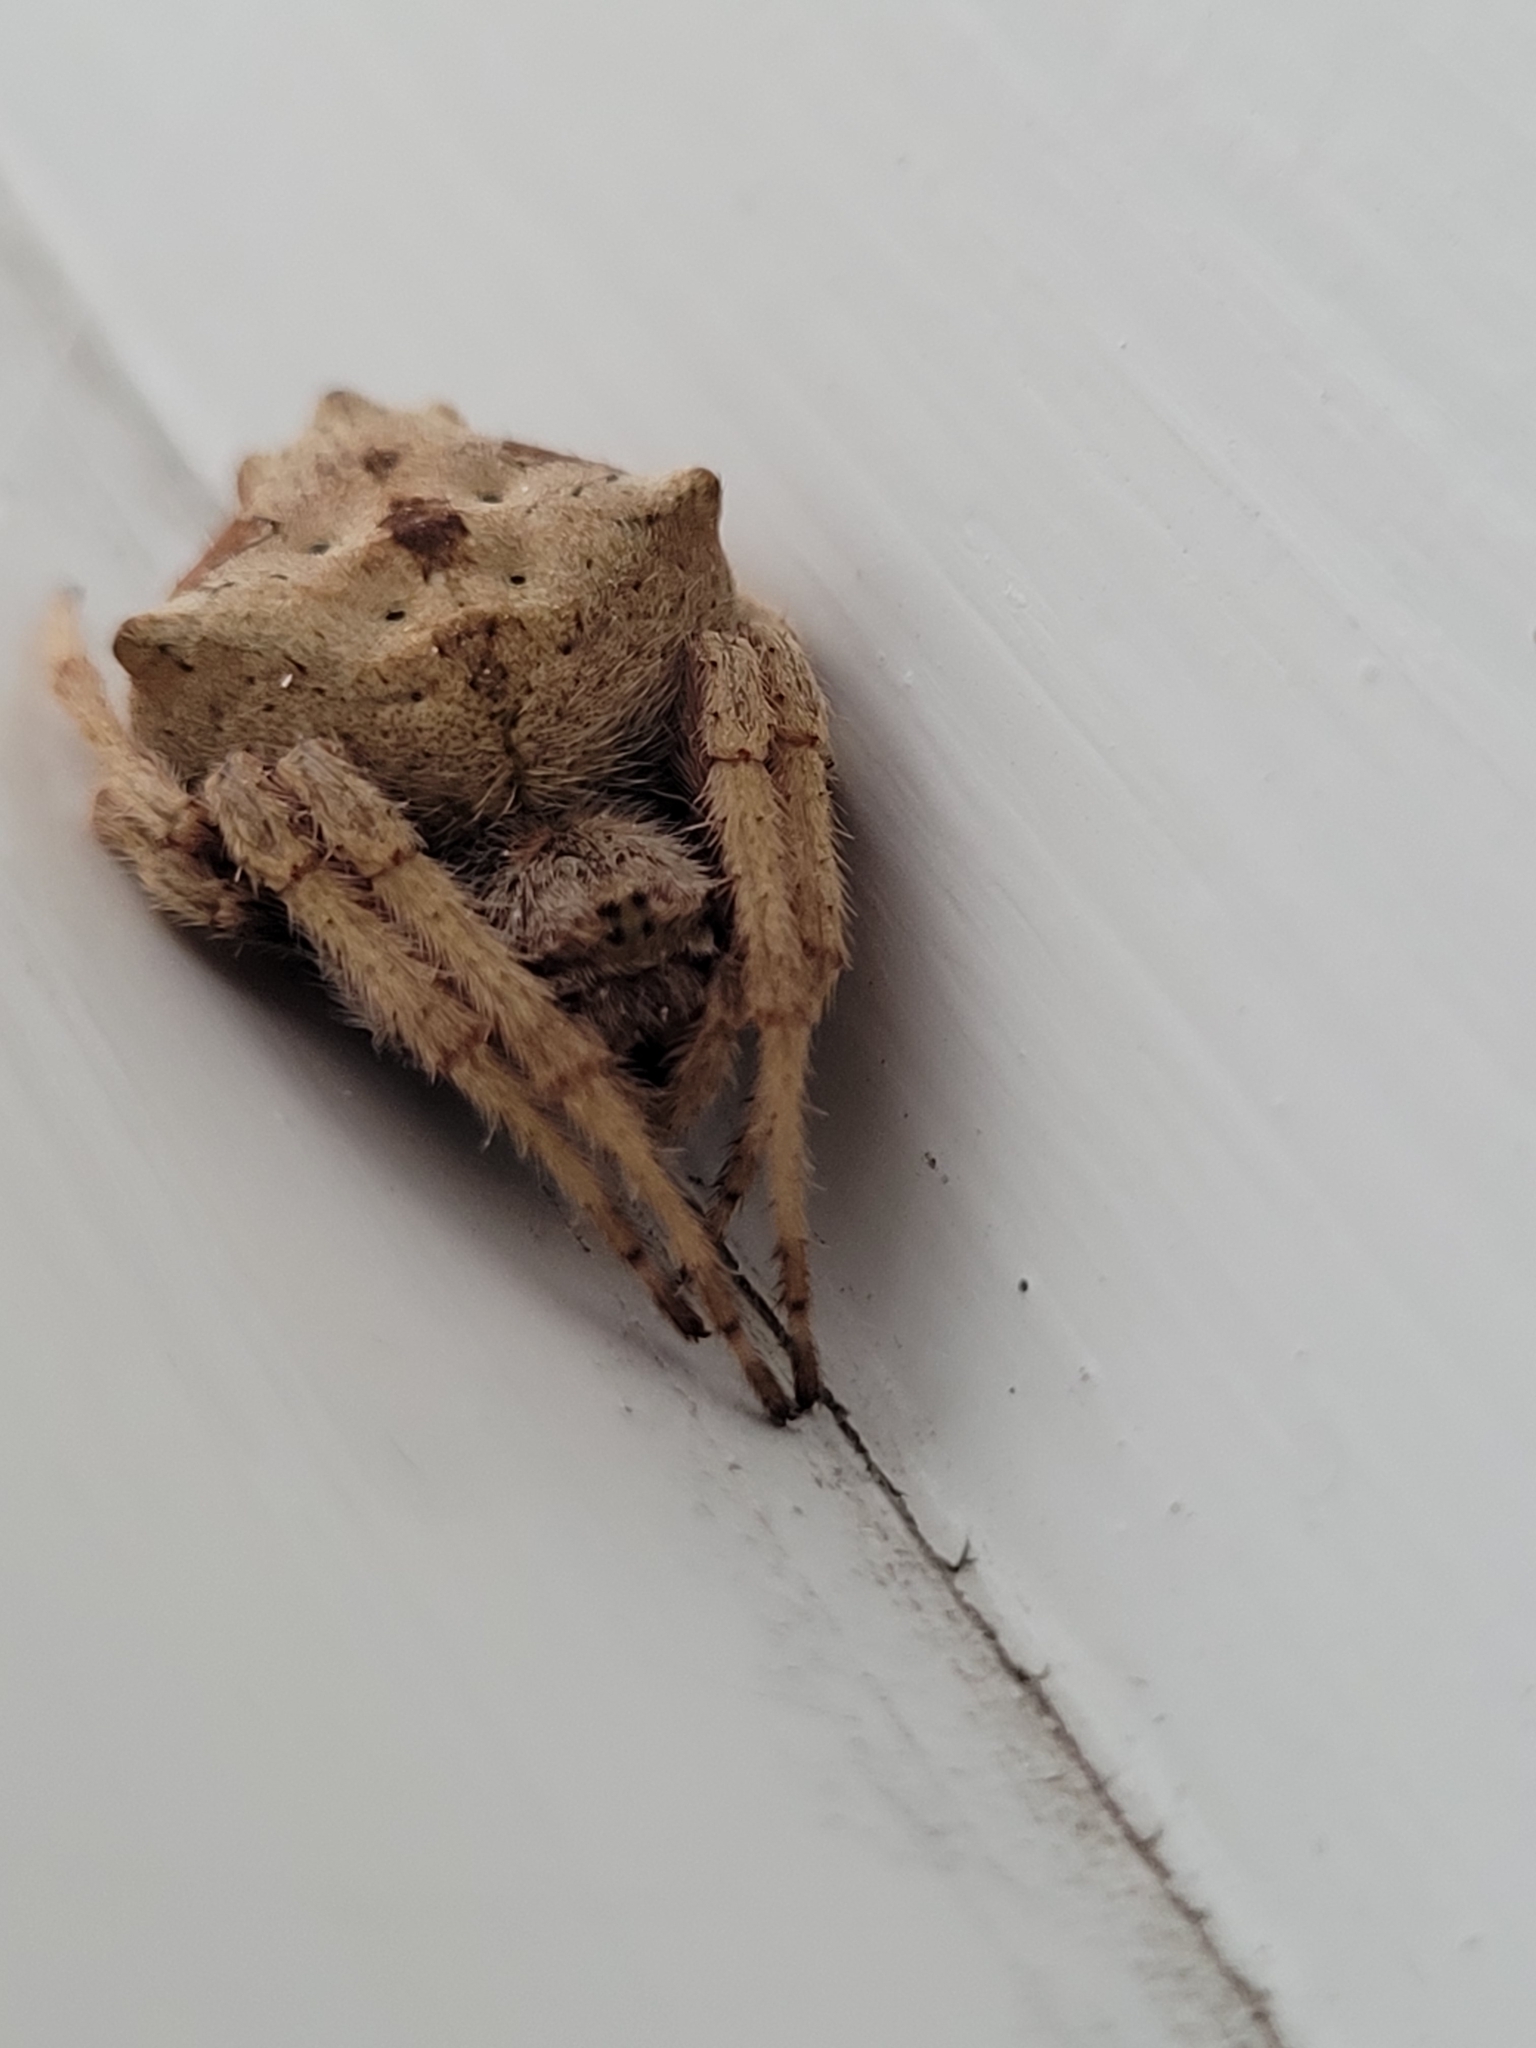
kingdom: Animalia
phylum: Arthropoda
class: Arachnida
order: Araneae
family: Araneidae
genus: Eriophora
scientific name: Eriophora pustulosa
